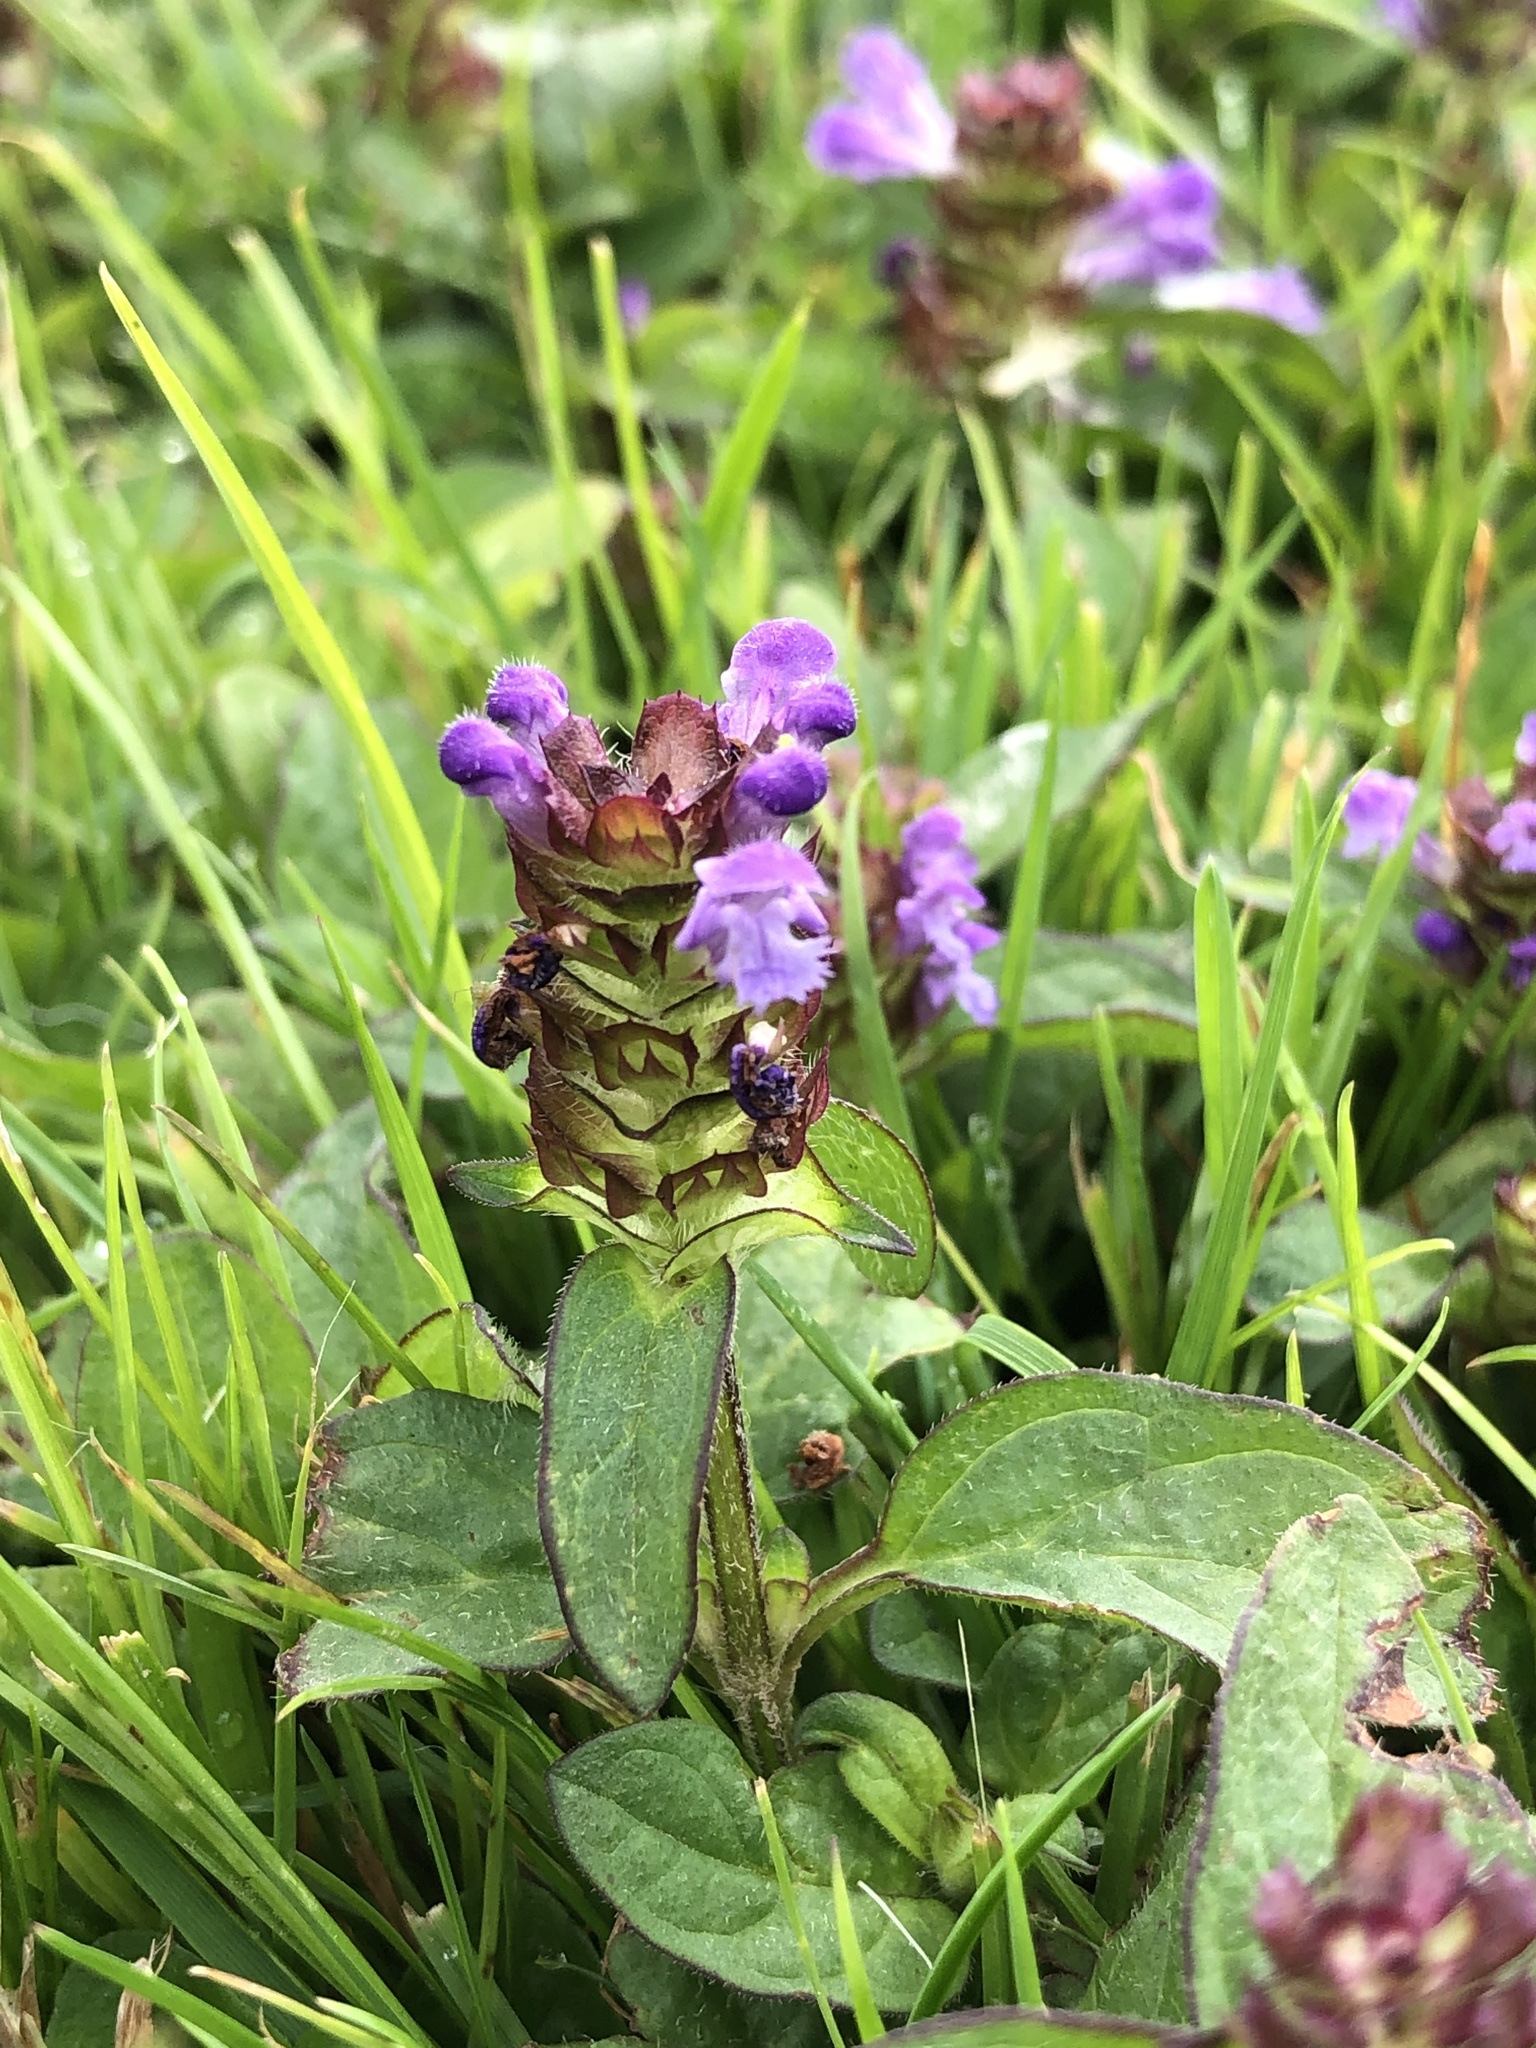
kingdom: Plantae
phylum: Tracheophyta
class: Magnoliopsida
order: Lamiales
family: Lamiaceae
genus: Prunella
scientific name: Prunella vulgaris
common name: Heal-all
